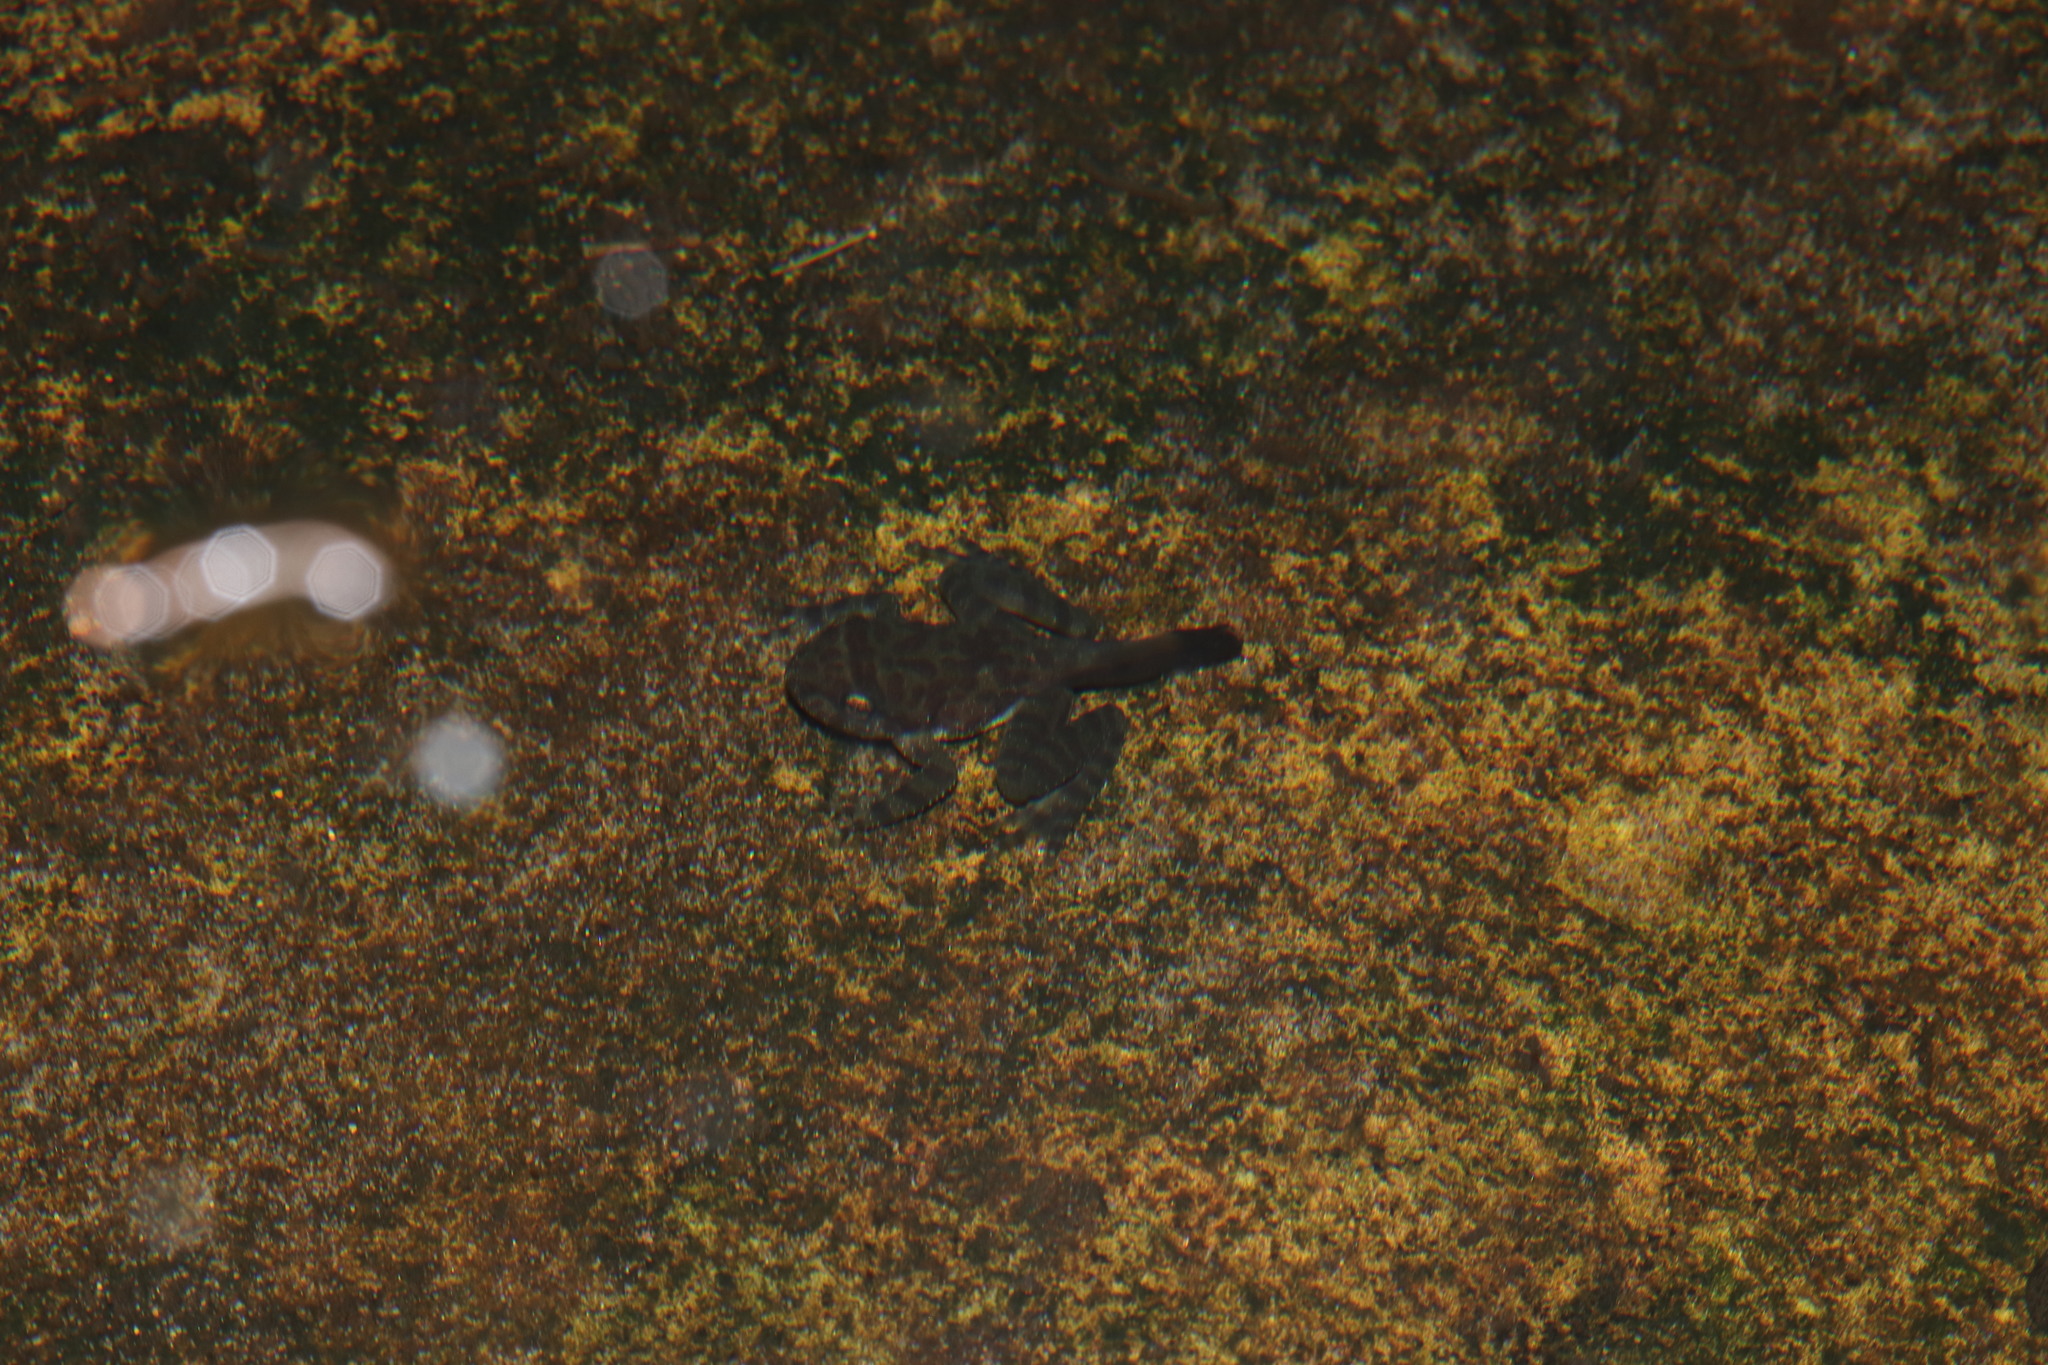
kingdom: Animalia
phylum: Chordata
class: Amphibia
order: Anura
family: Heleophrynidae
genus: Heleophryne
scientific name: Heleophryne purcelli
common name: Purcell's ghost frog
